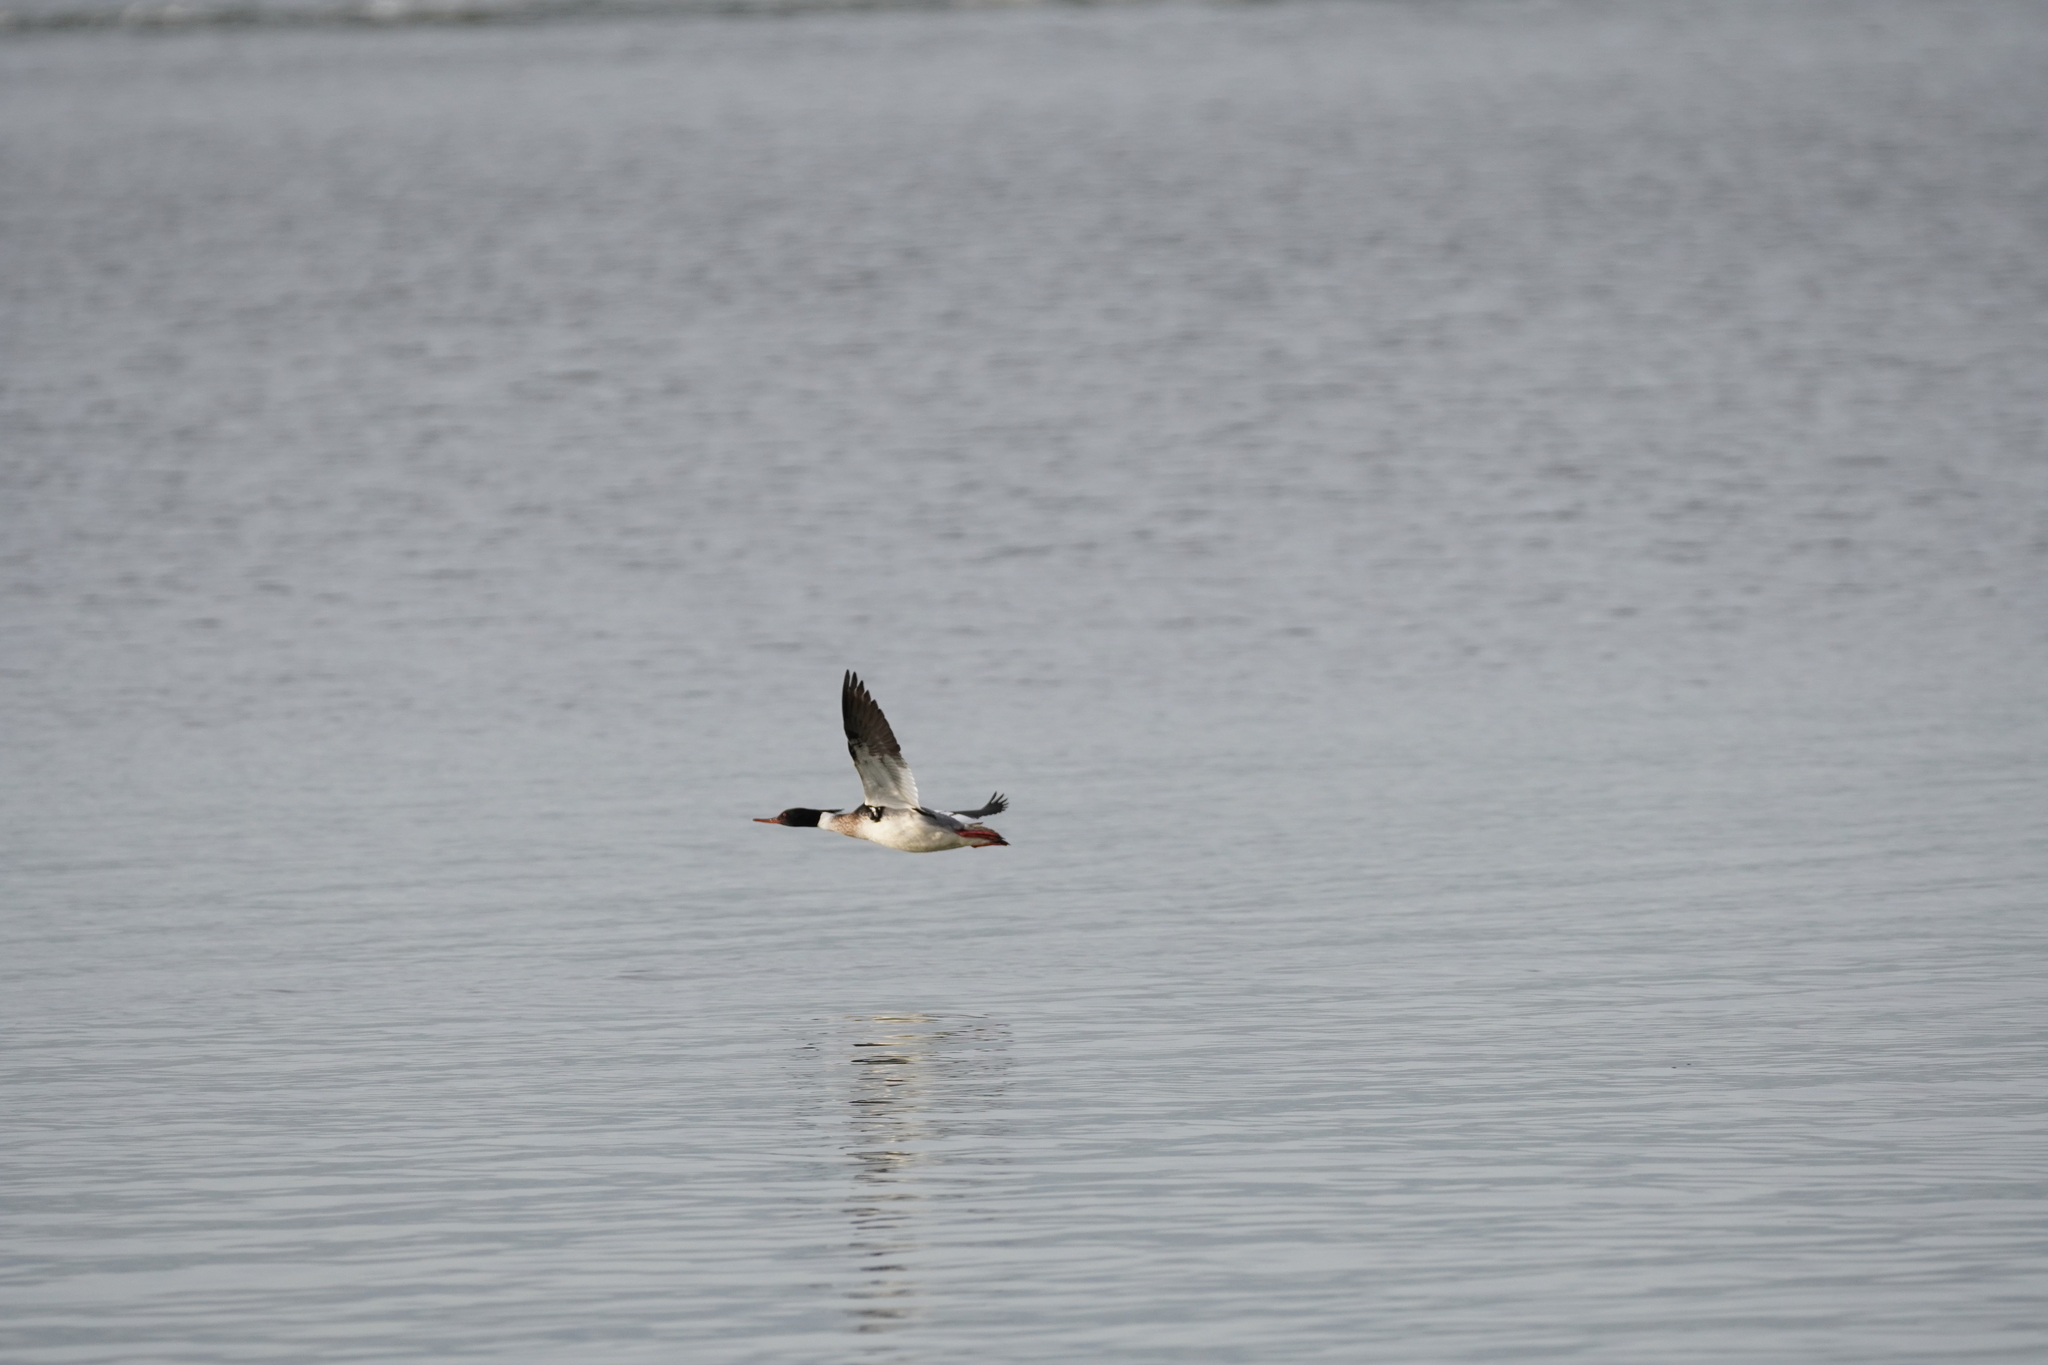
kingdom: Animalia
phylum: Chordata
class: Aves
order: Anseriformes
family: Anatidae
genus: Mergus
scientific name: Mergus serrator
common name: Red-breasted merganser
